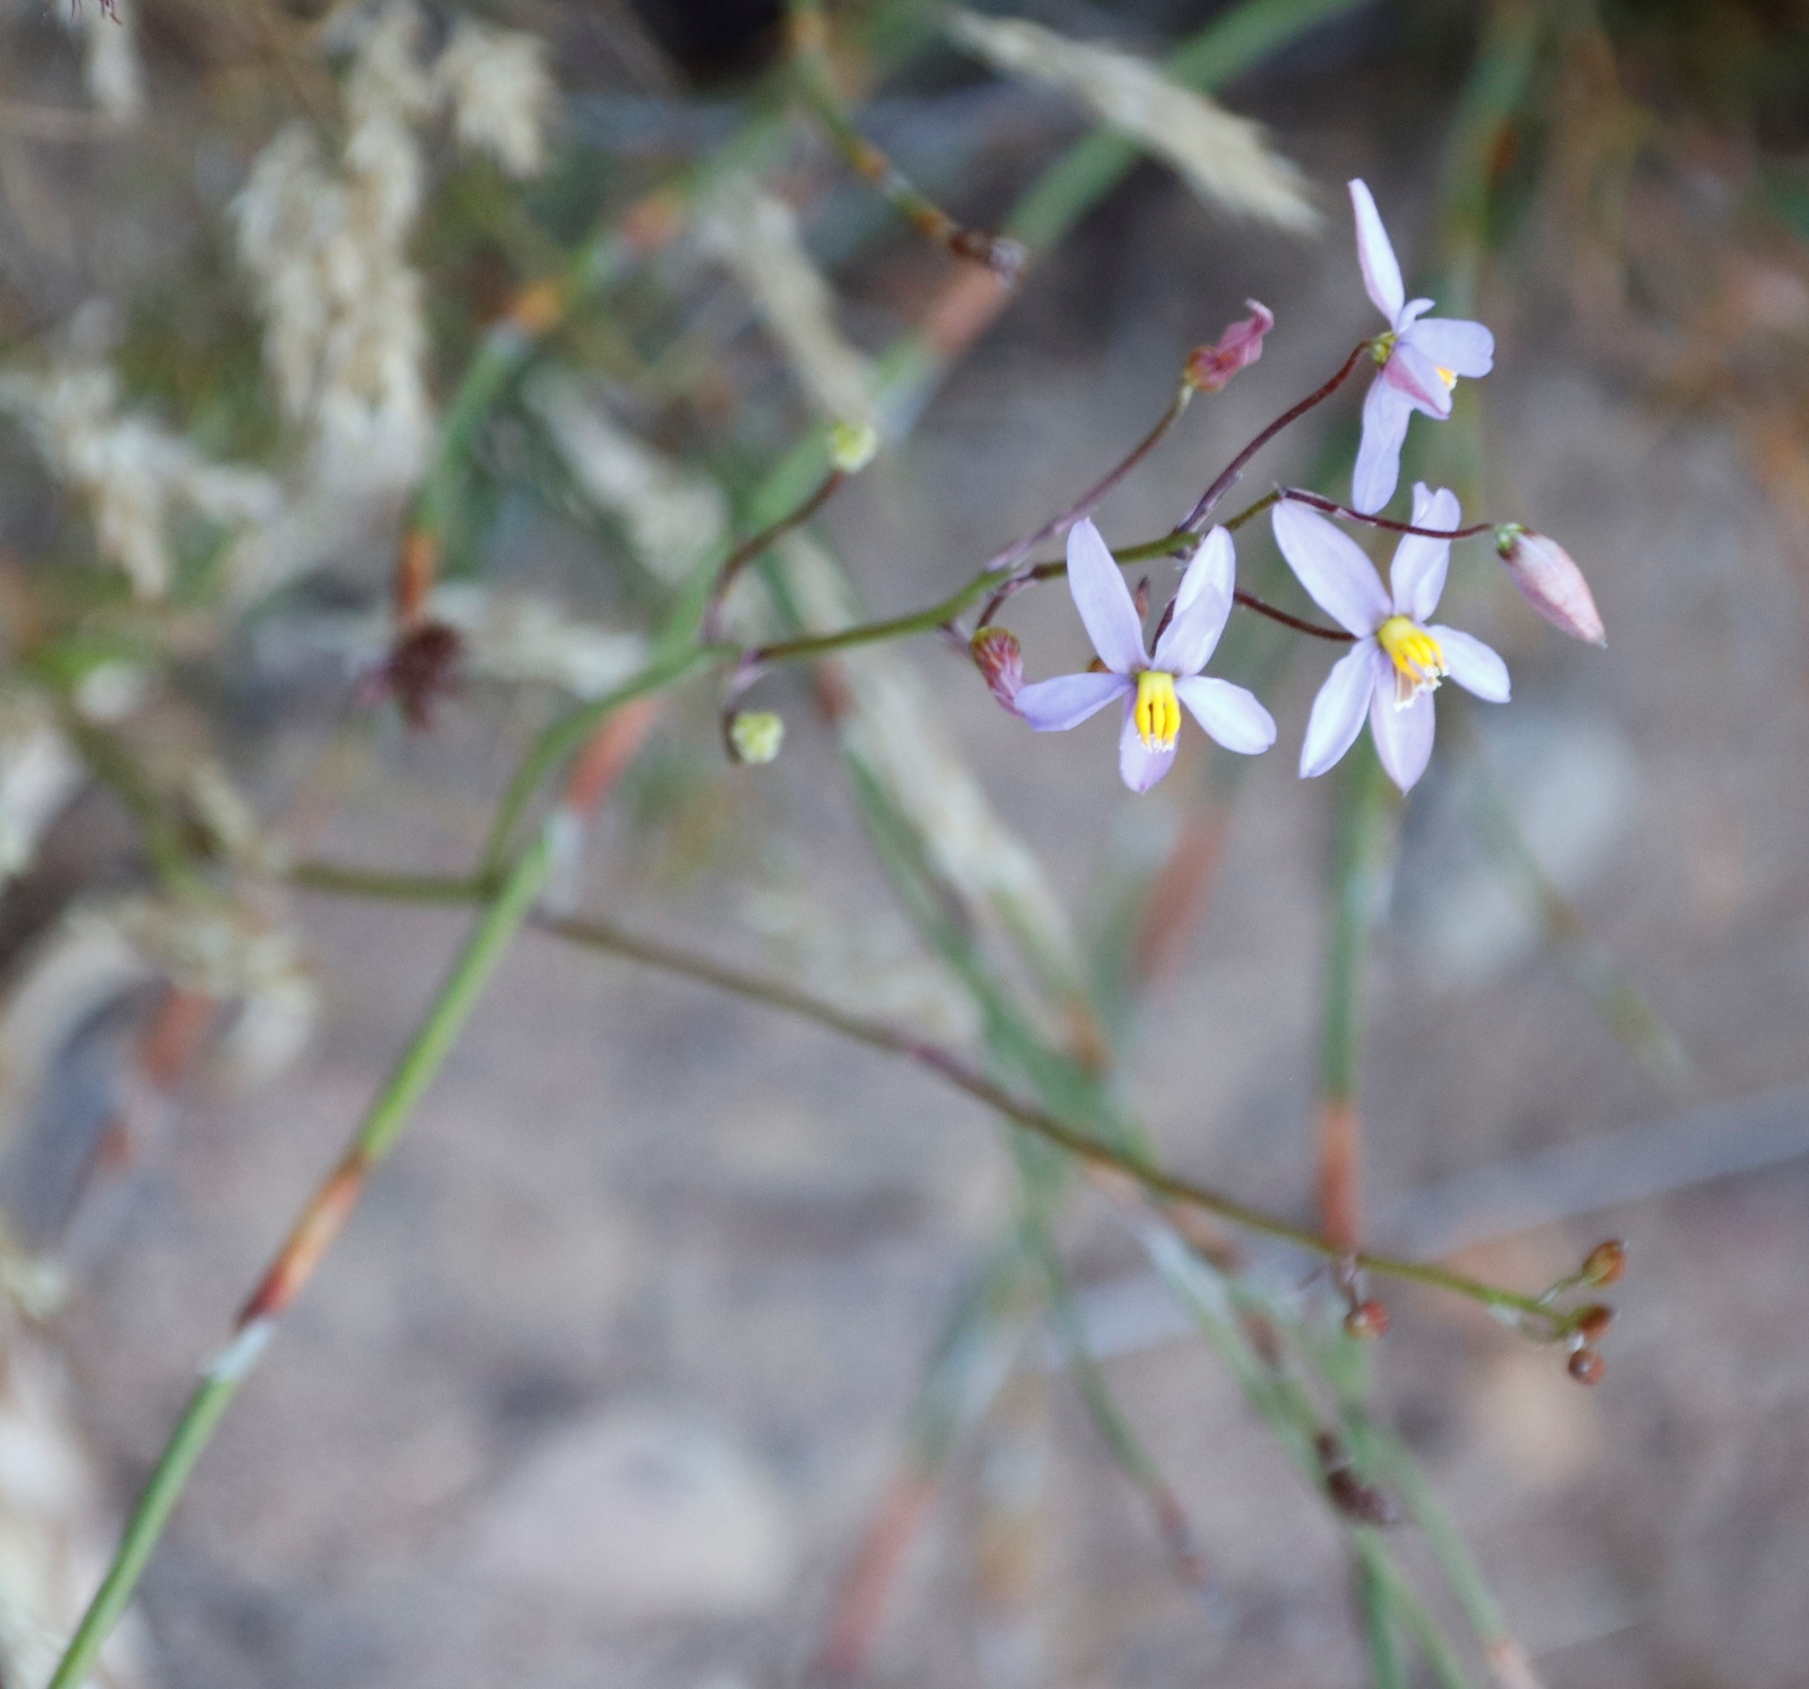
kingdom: Plantae
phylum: Tracheophyta
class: Liliopsida
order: Asparagales
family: Tecophilaeaceae
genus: Cyanella
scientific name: Cyanella hyacinthoides
